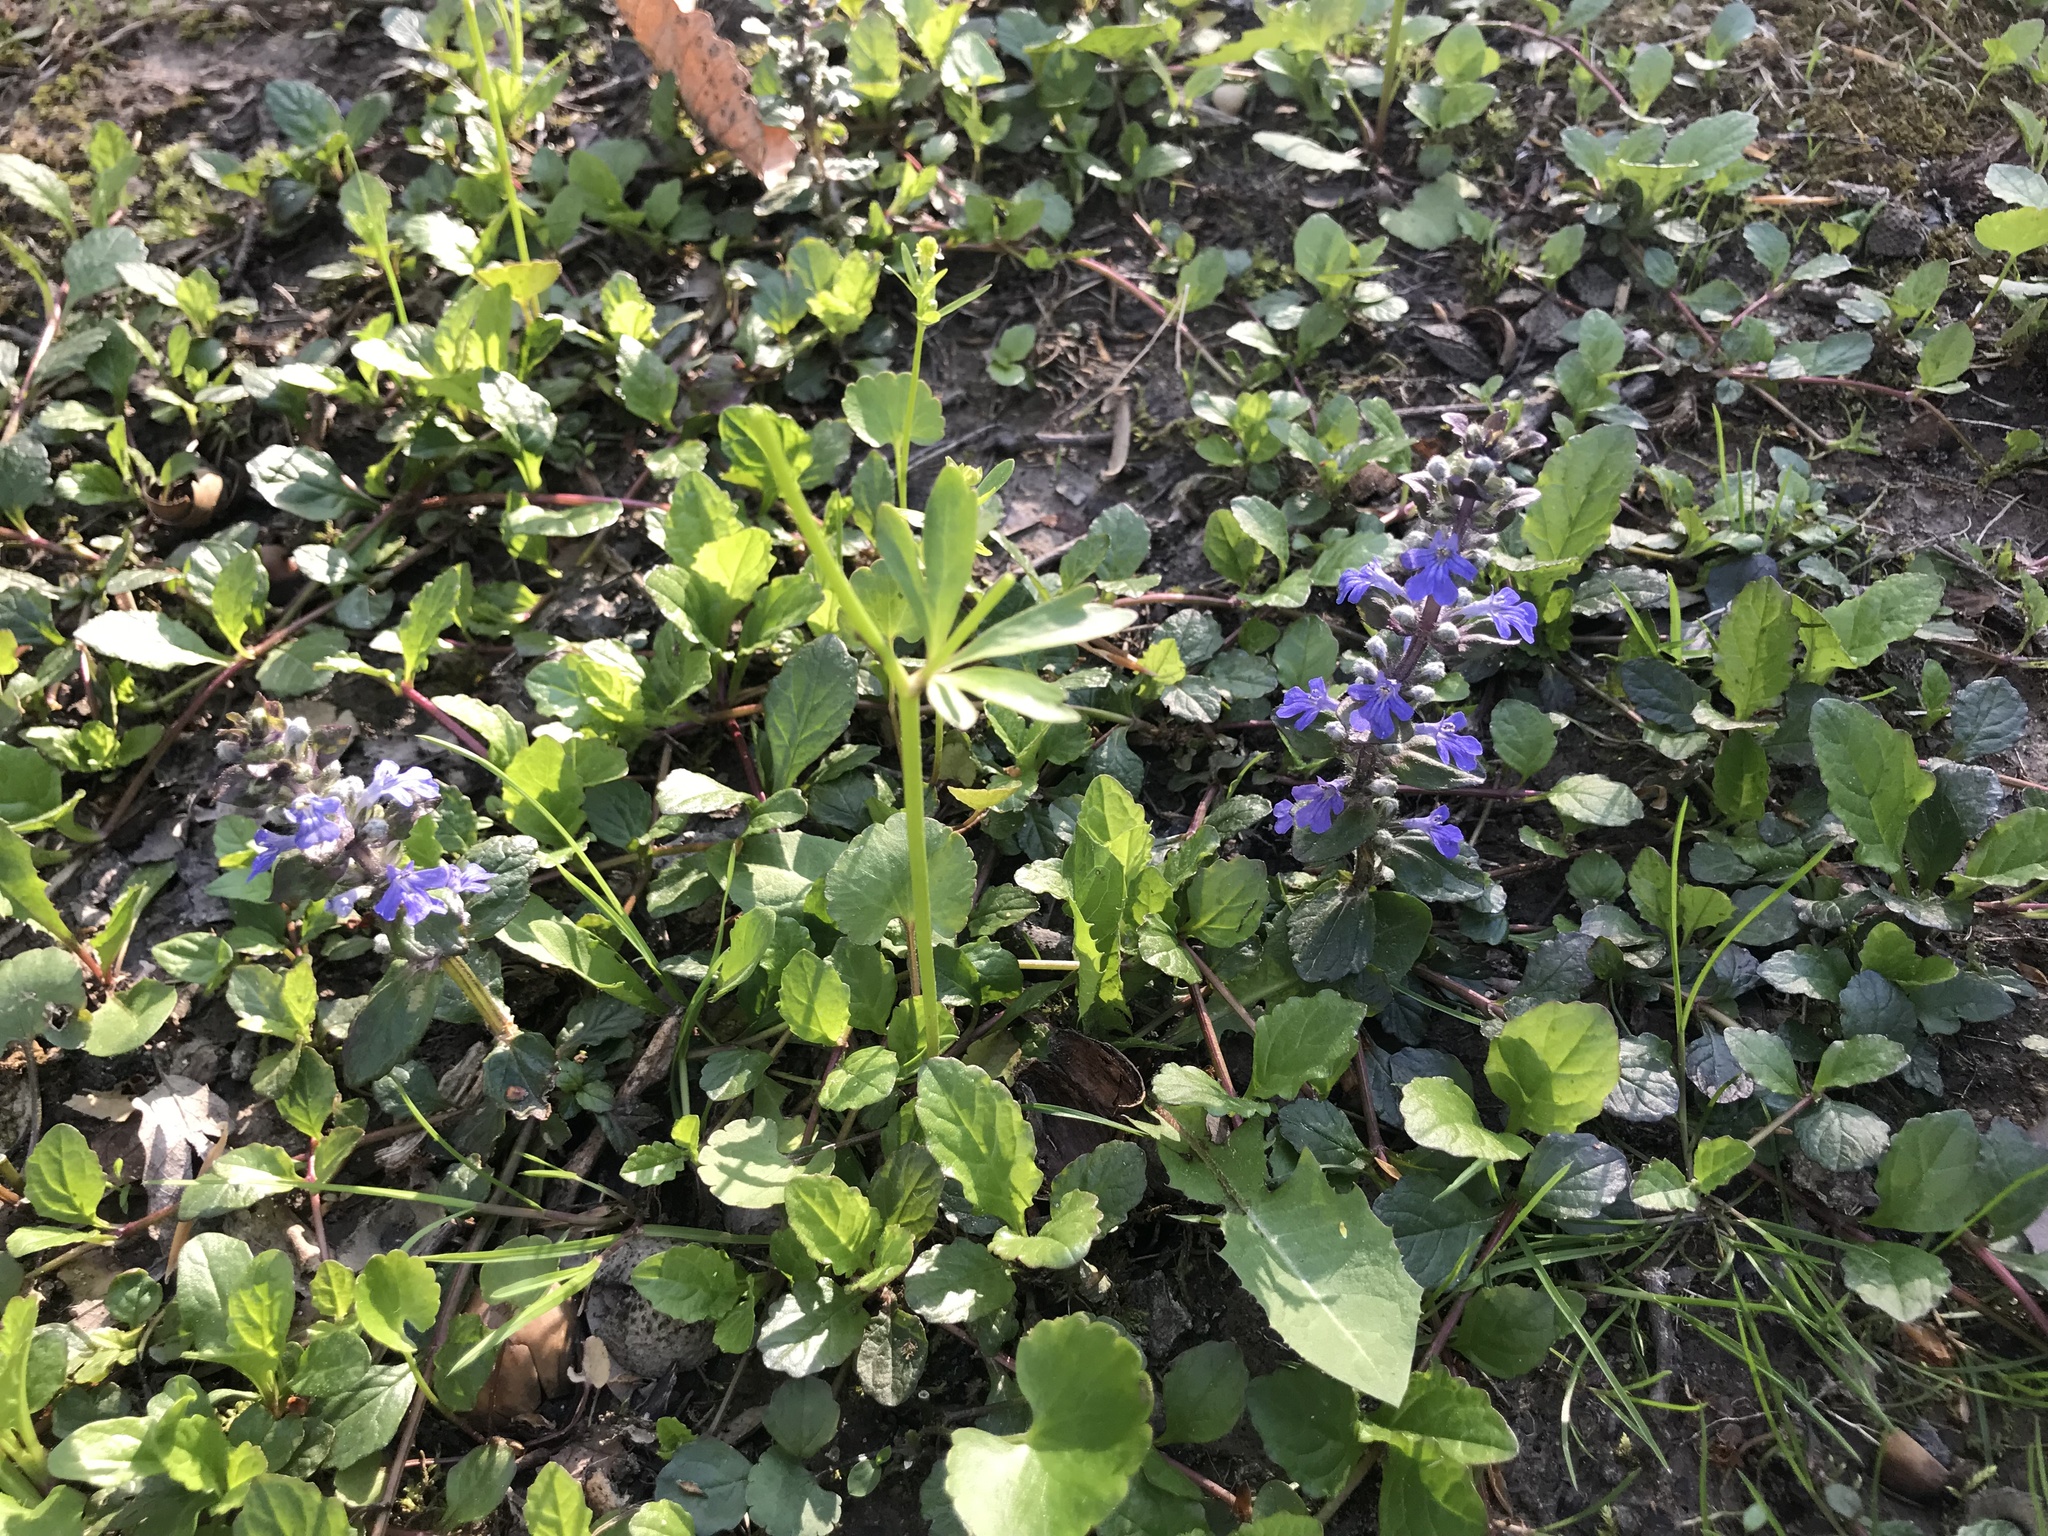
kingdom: Plantae
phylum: Tracheophyta
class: Magnoliopsida
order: Lamiales
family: Lamiaceae
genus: Ajuga
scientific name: Ajuga reptans
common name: Bugle
